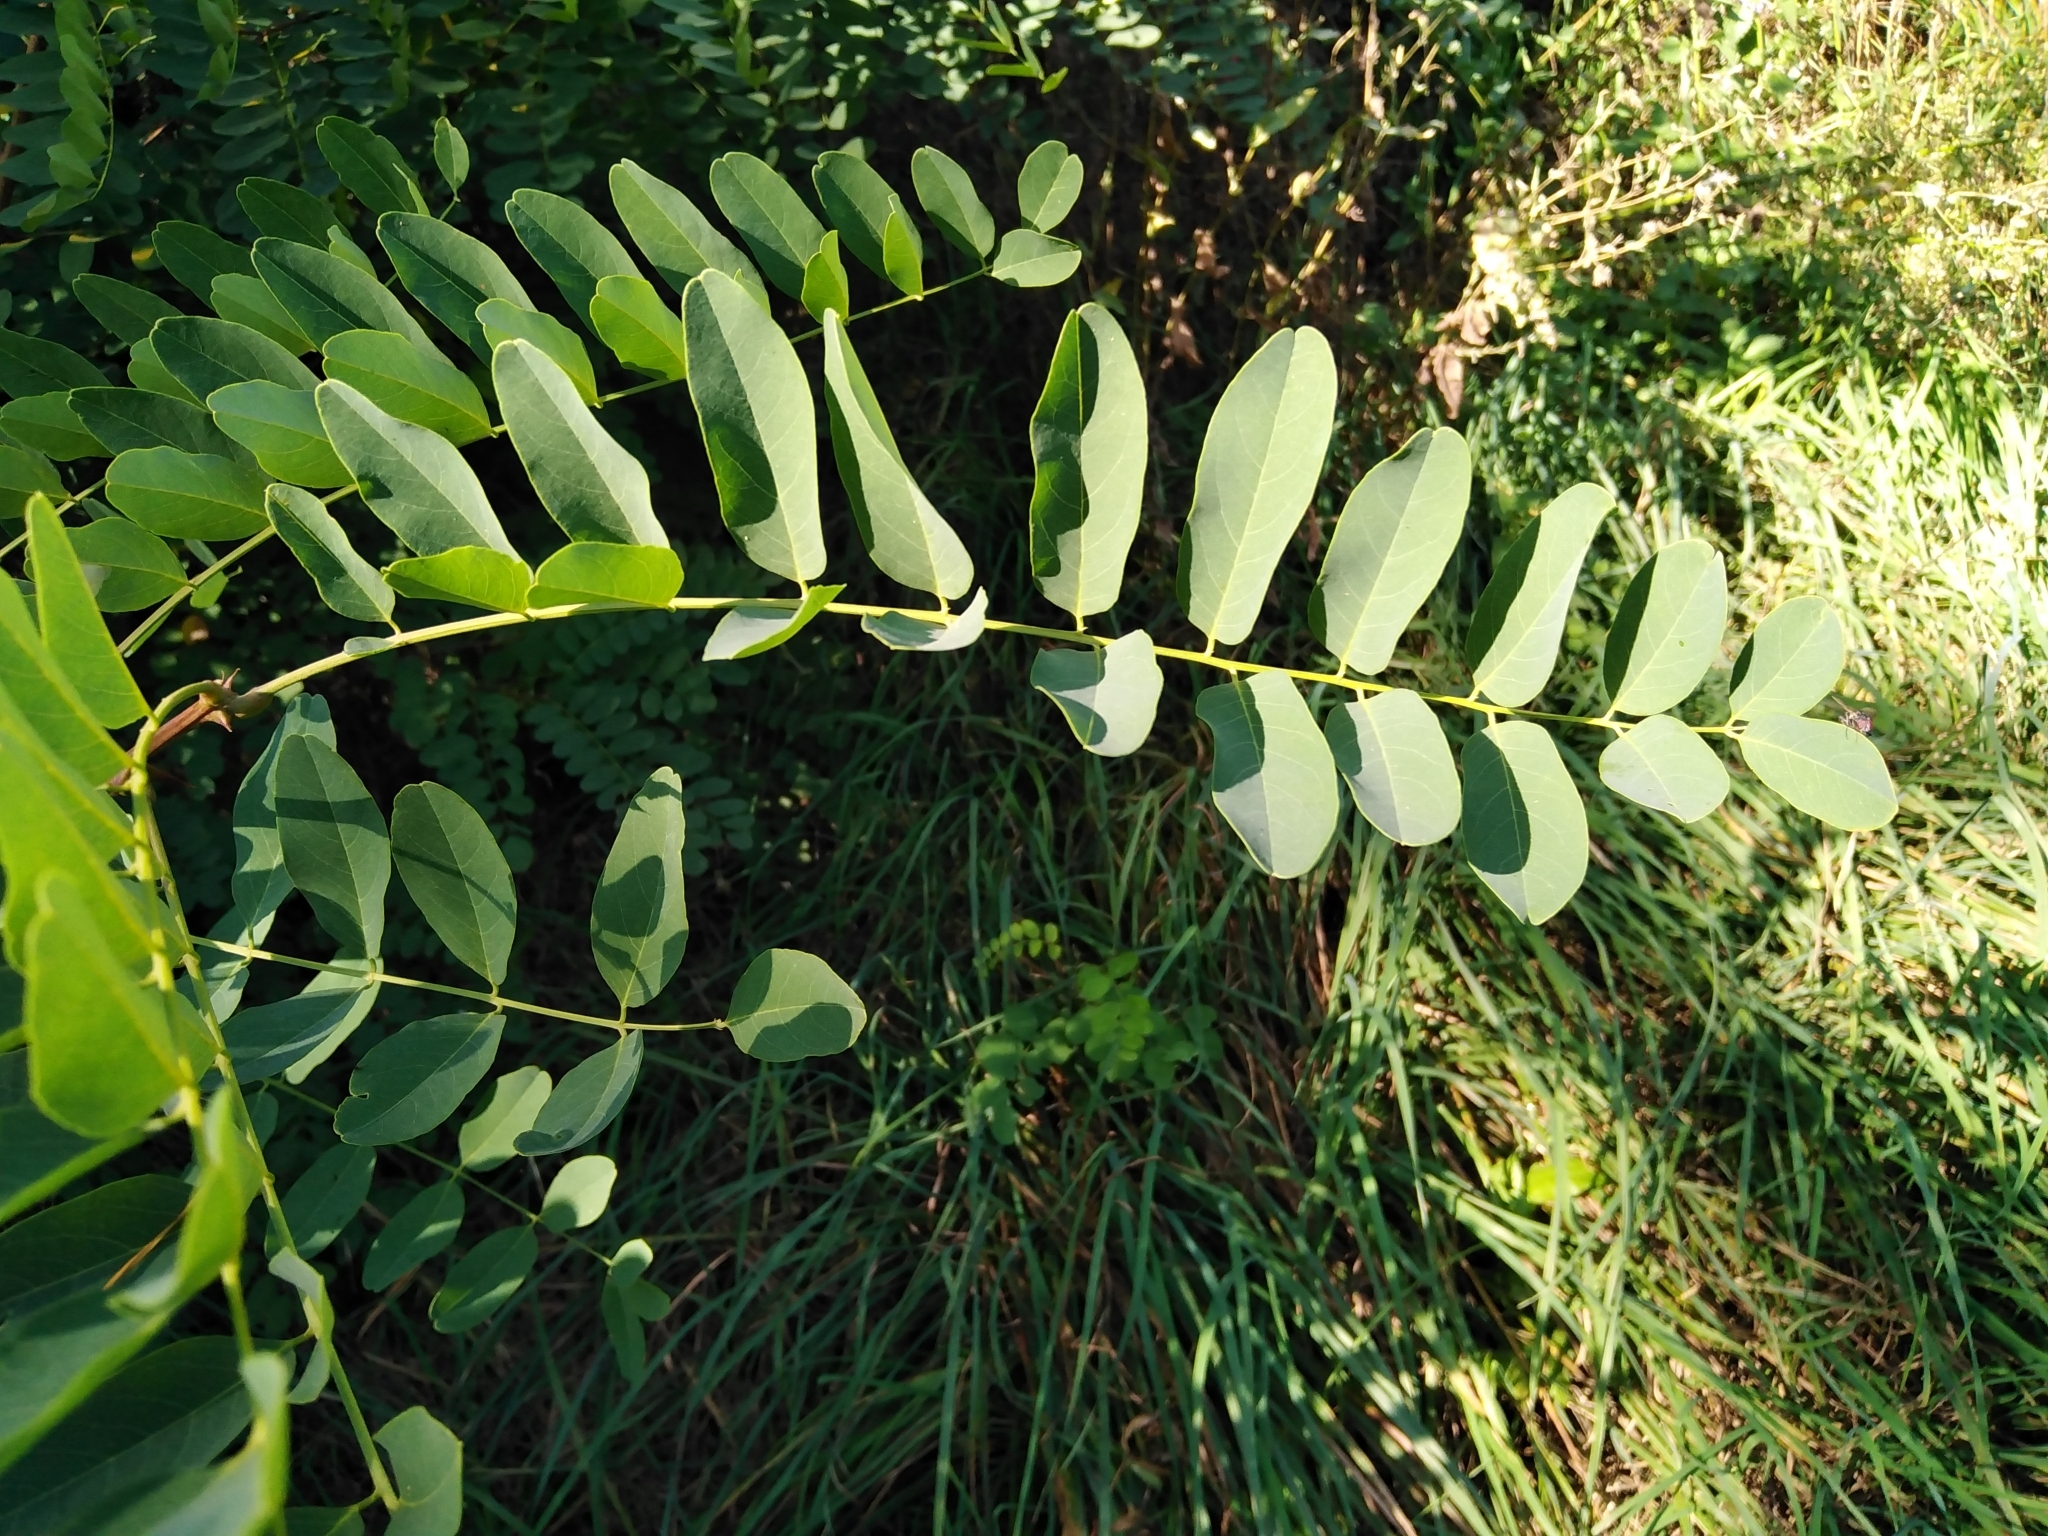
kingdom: Plantae
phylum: Tracheophyta
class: Magnoliopsida
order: Fabales
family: Fabaceae
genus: Robinia
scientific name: Robinia pseudoacacia
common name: Black locust
